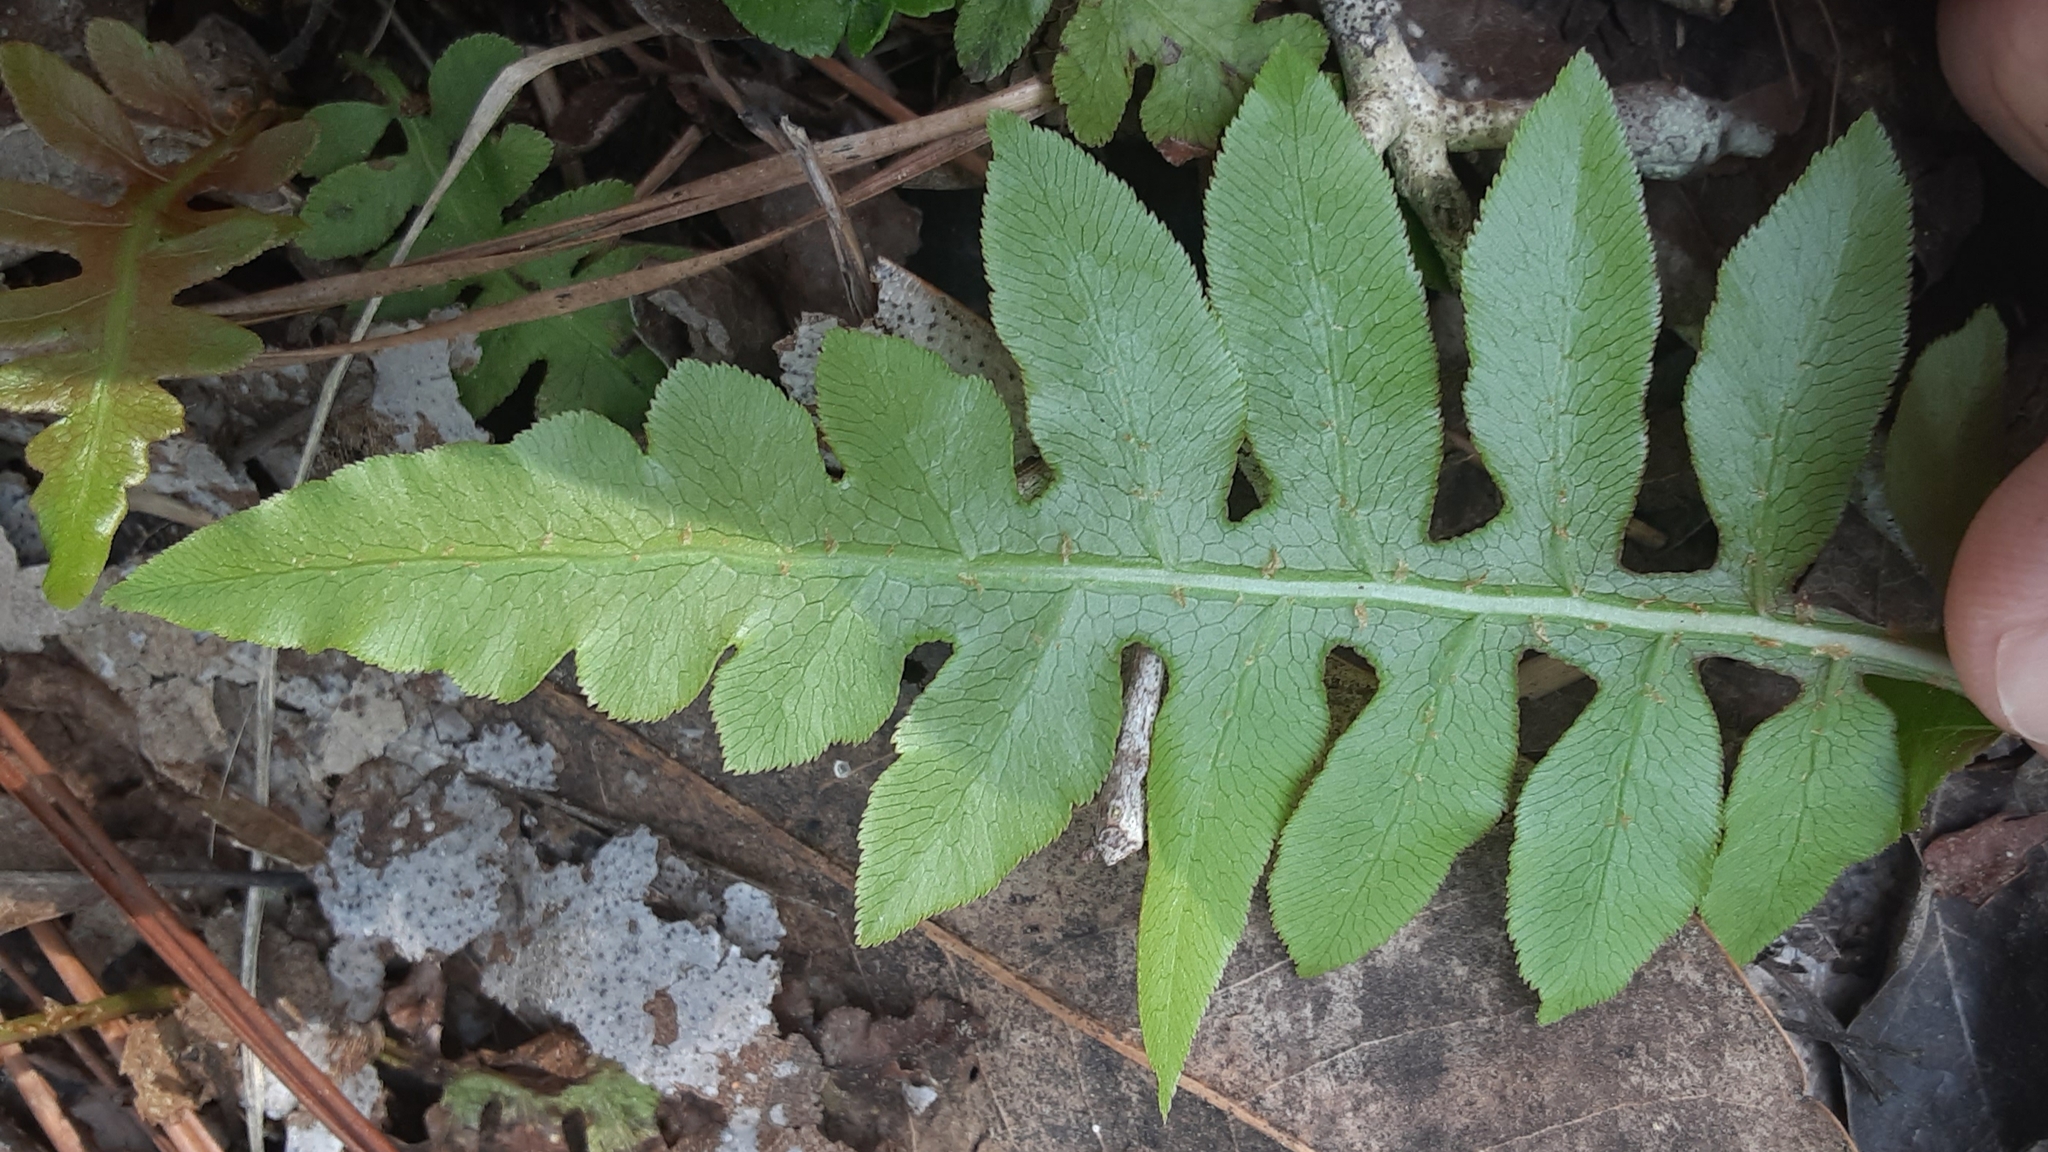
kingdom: Plantae
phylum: Tracheophyta
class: Polypodiopsida
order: Polypodiales
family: Blechnaceae
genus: Lorinseria
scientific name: Lorinseria areolata
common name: Dwarf chain fern
